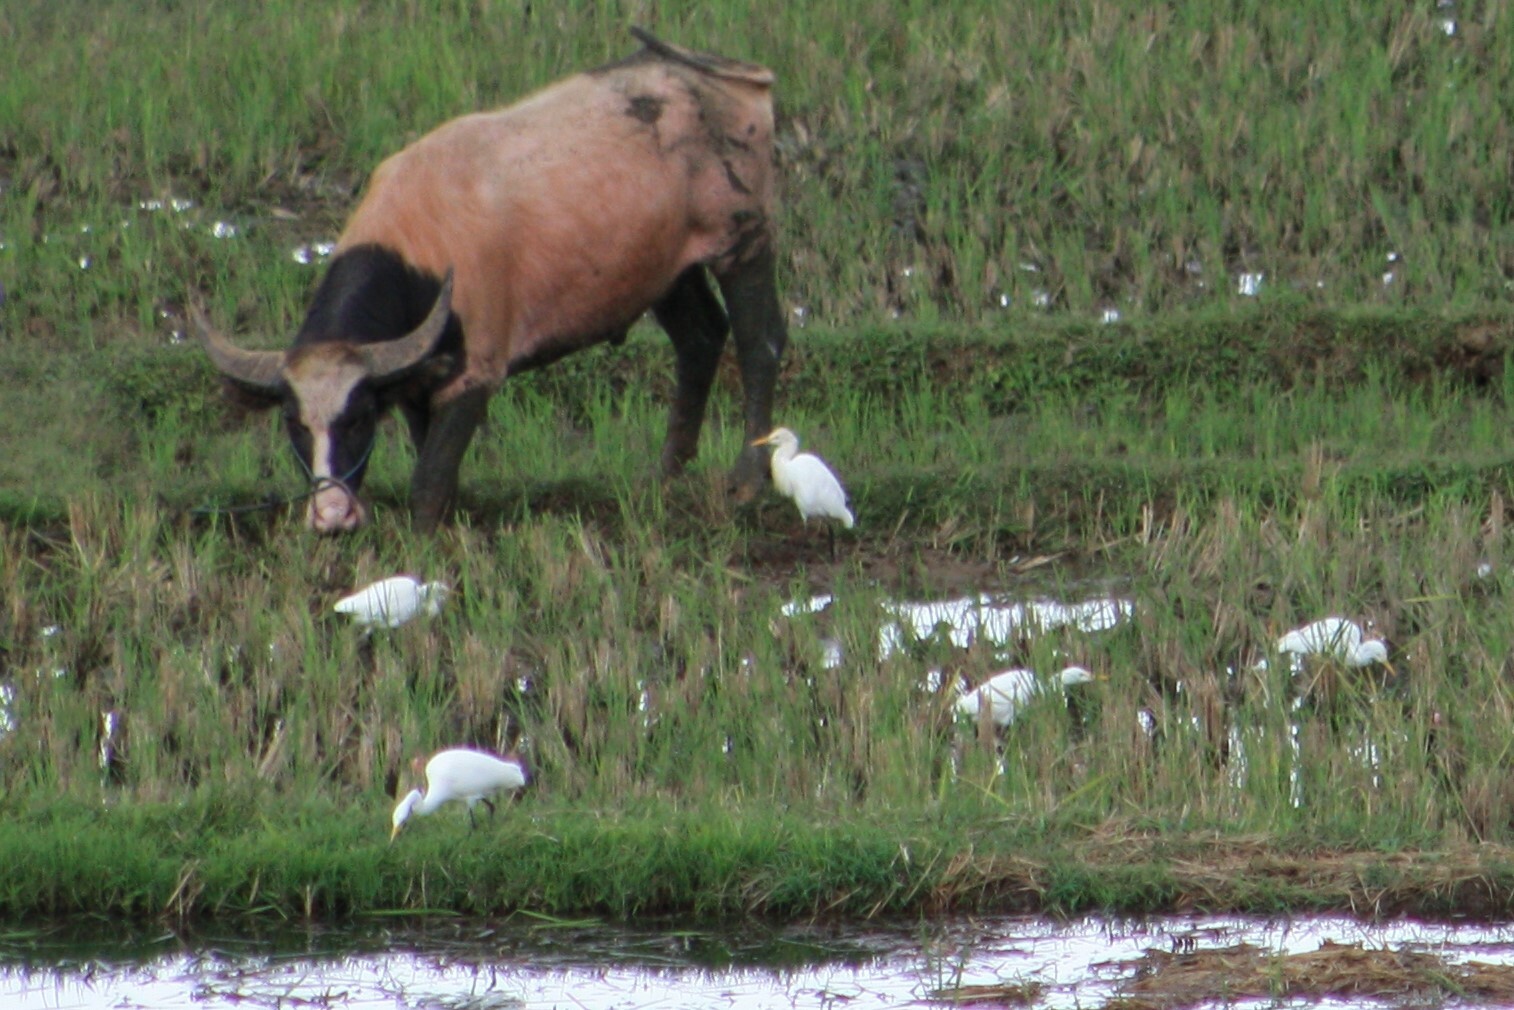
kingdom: Animalia
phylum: Chordata
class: Aves
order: Pelecaniformes
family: Ardeidae
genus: Bubulcus
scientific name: Bubulcus coromandus
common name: Eastern cattle egret
